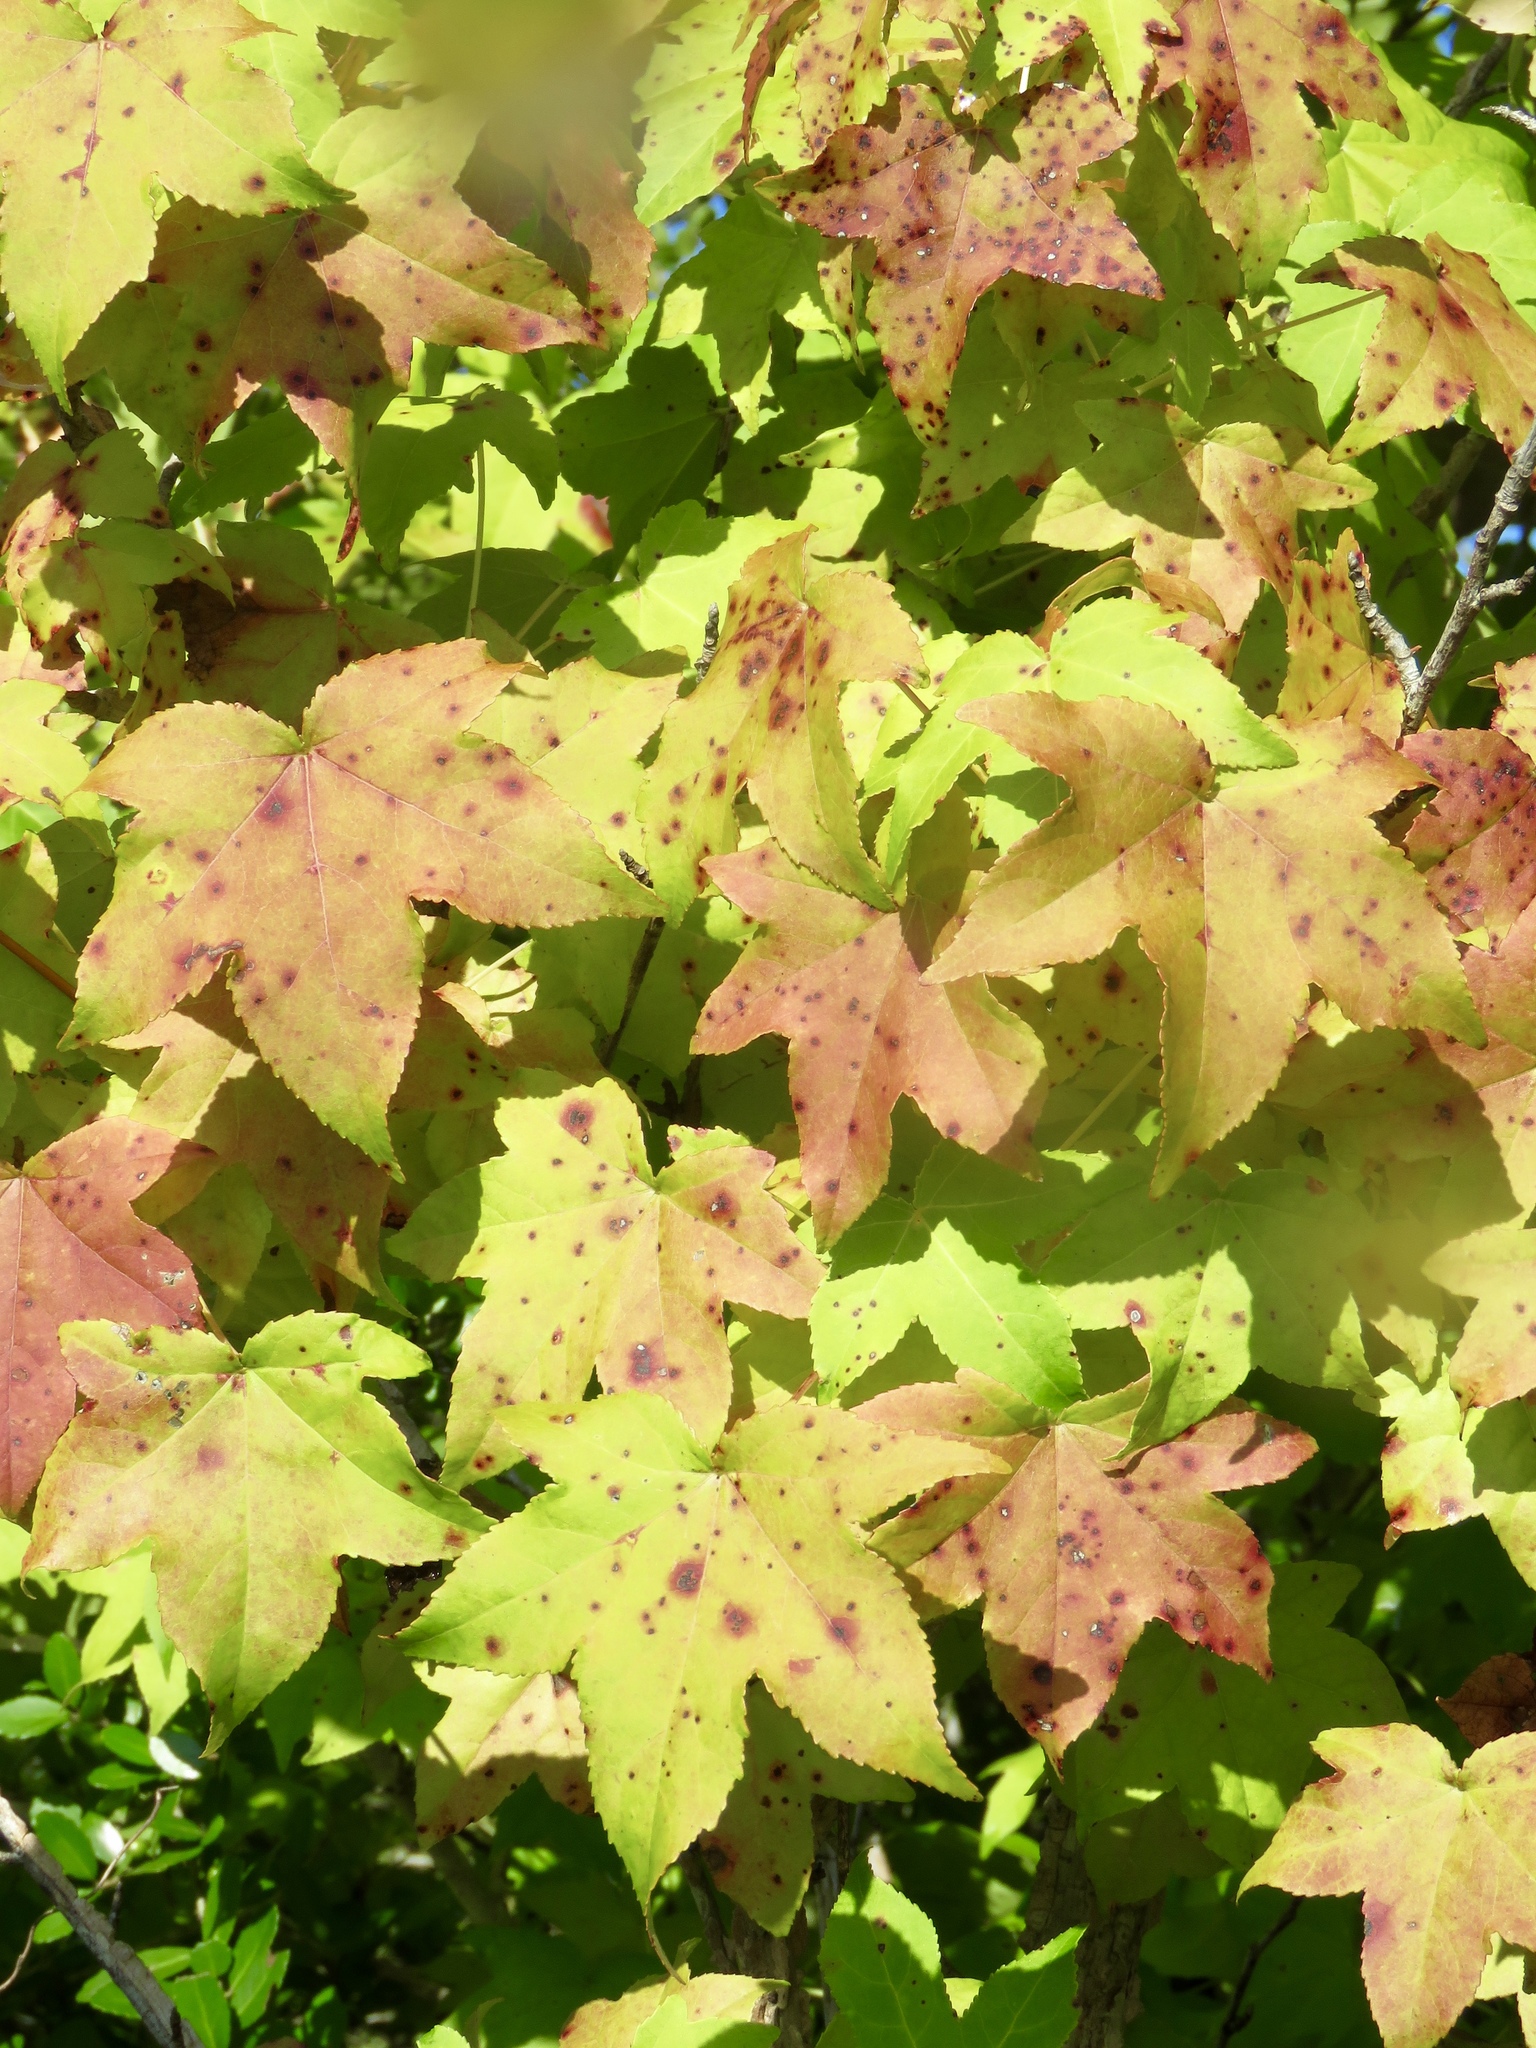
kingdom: Plantae
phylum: Tracheophyta
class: Magnoliopsida
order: Saxifragales
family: Altingiaceae
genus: Liquidambar
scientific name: Liquidambar styraciflua
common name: Sweet gum
